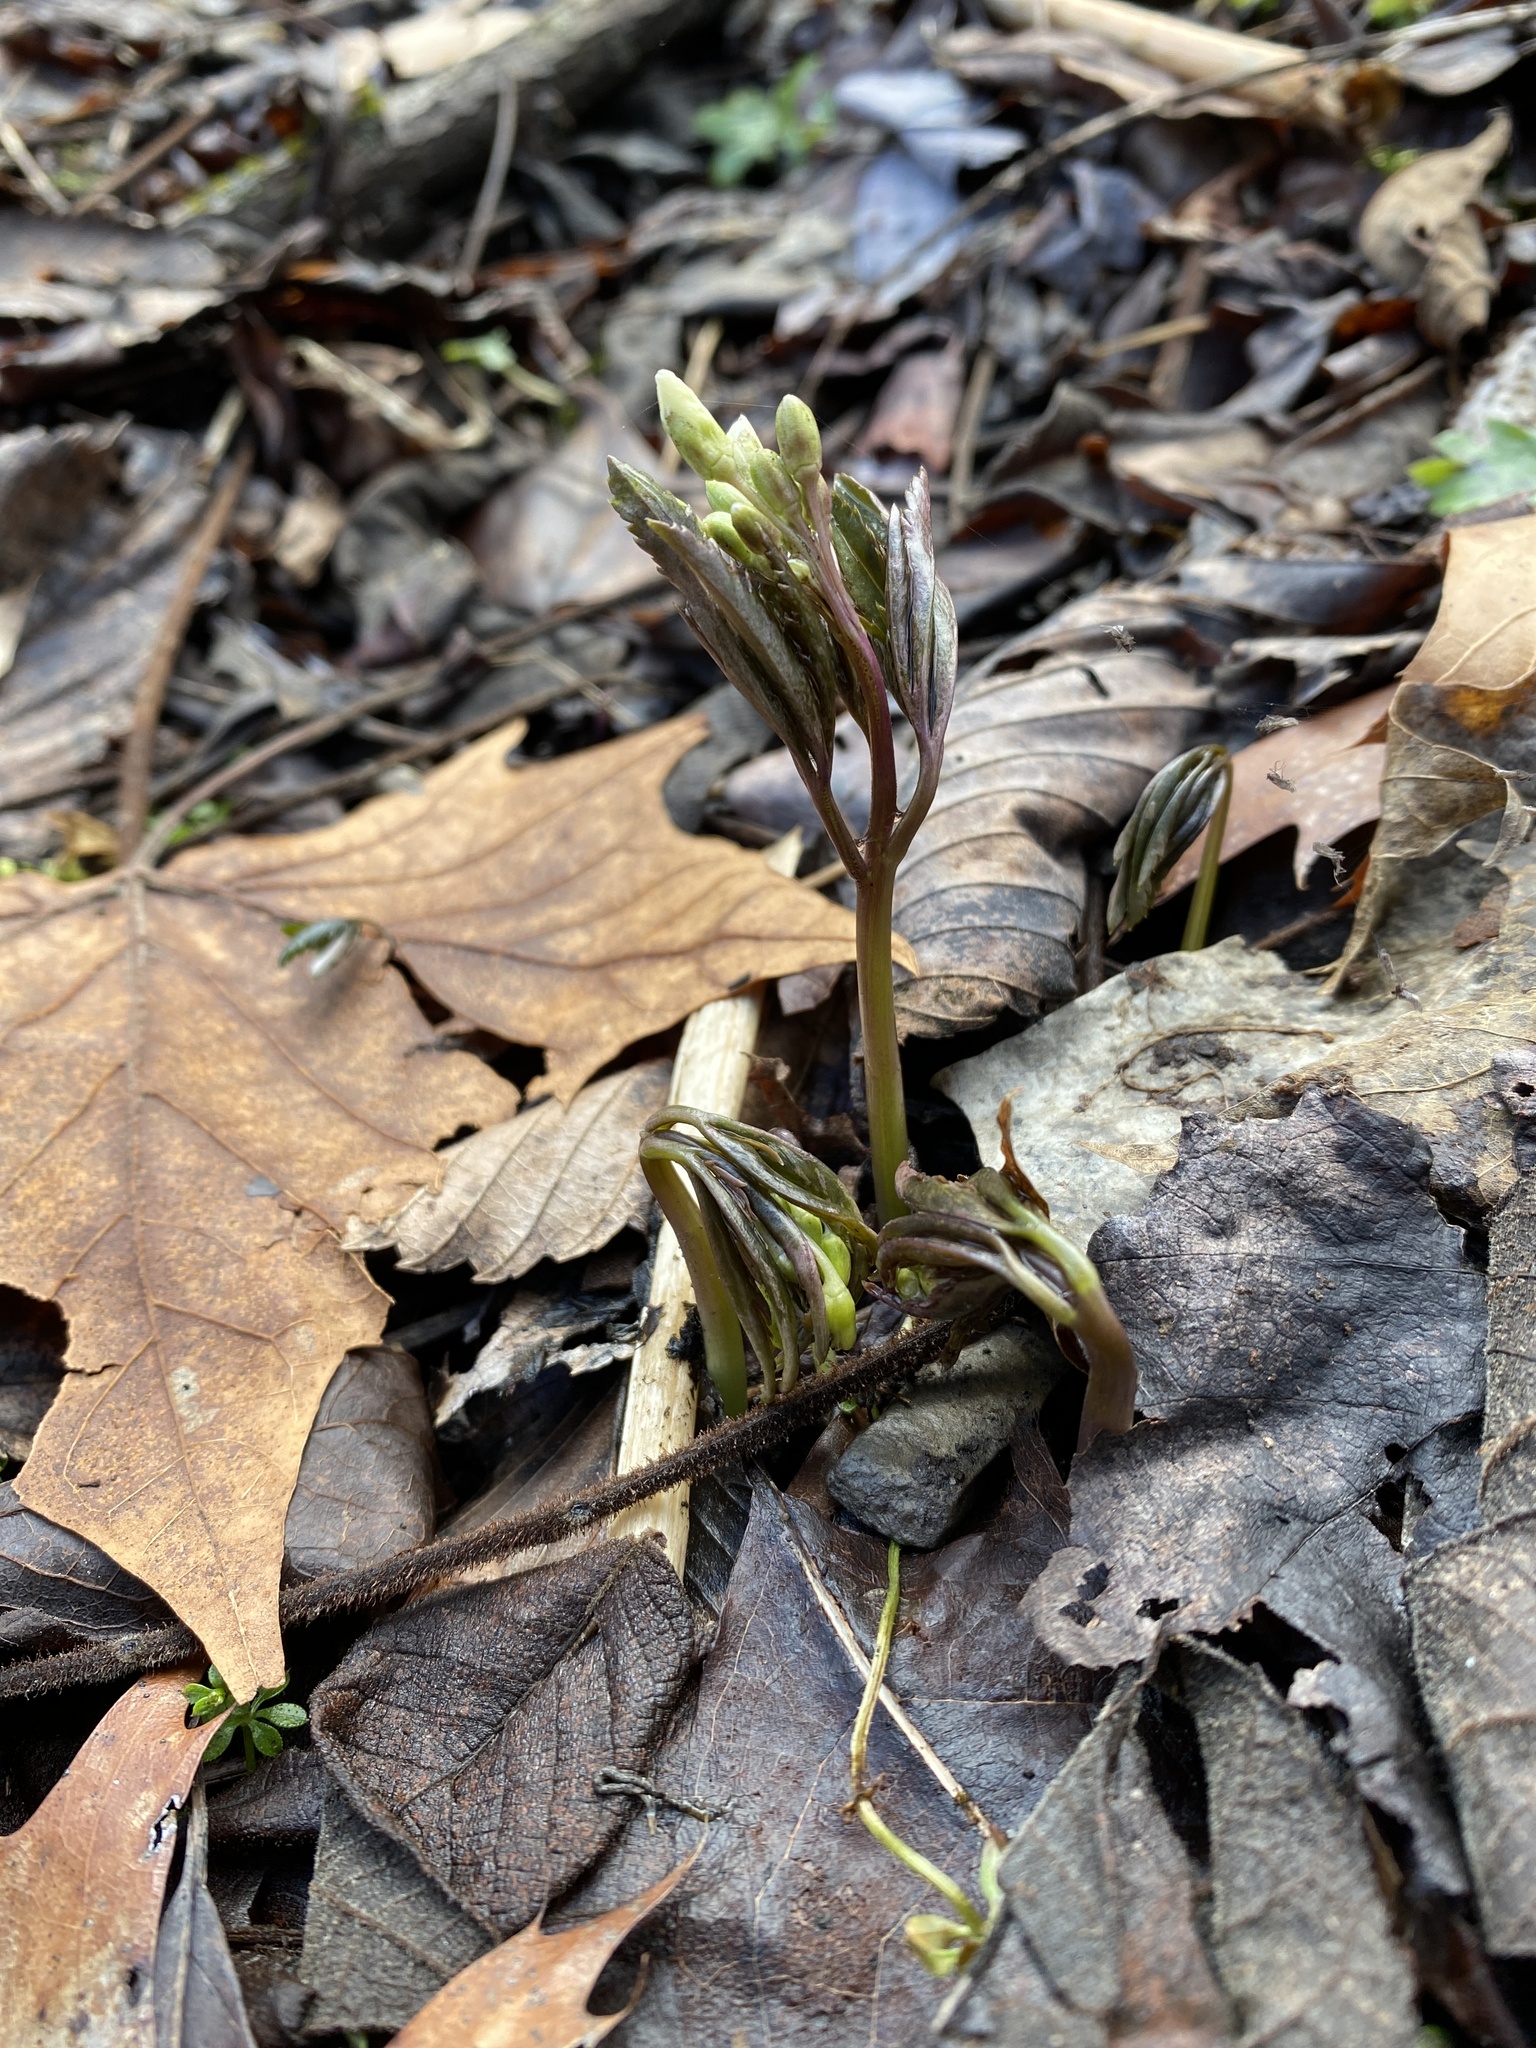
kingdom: Plantae
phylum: Tracheophyta
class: Magnoliopsida
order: Brassicales
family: Brassicaceae
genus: Cardamine
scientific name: Cardamine concatenata
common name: Cut-leaf toothcup
